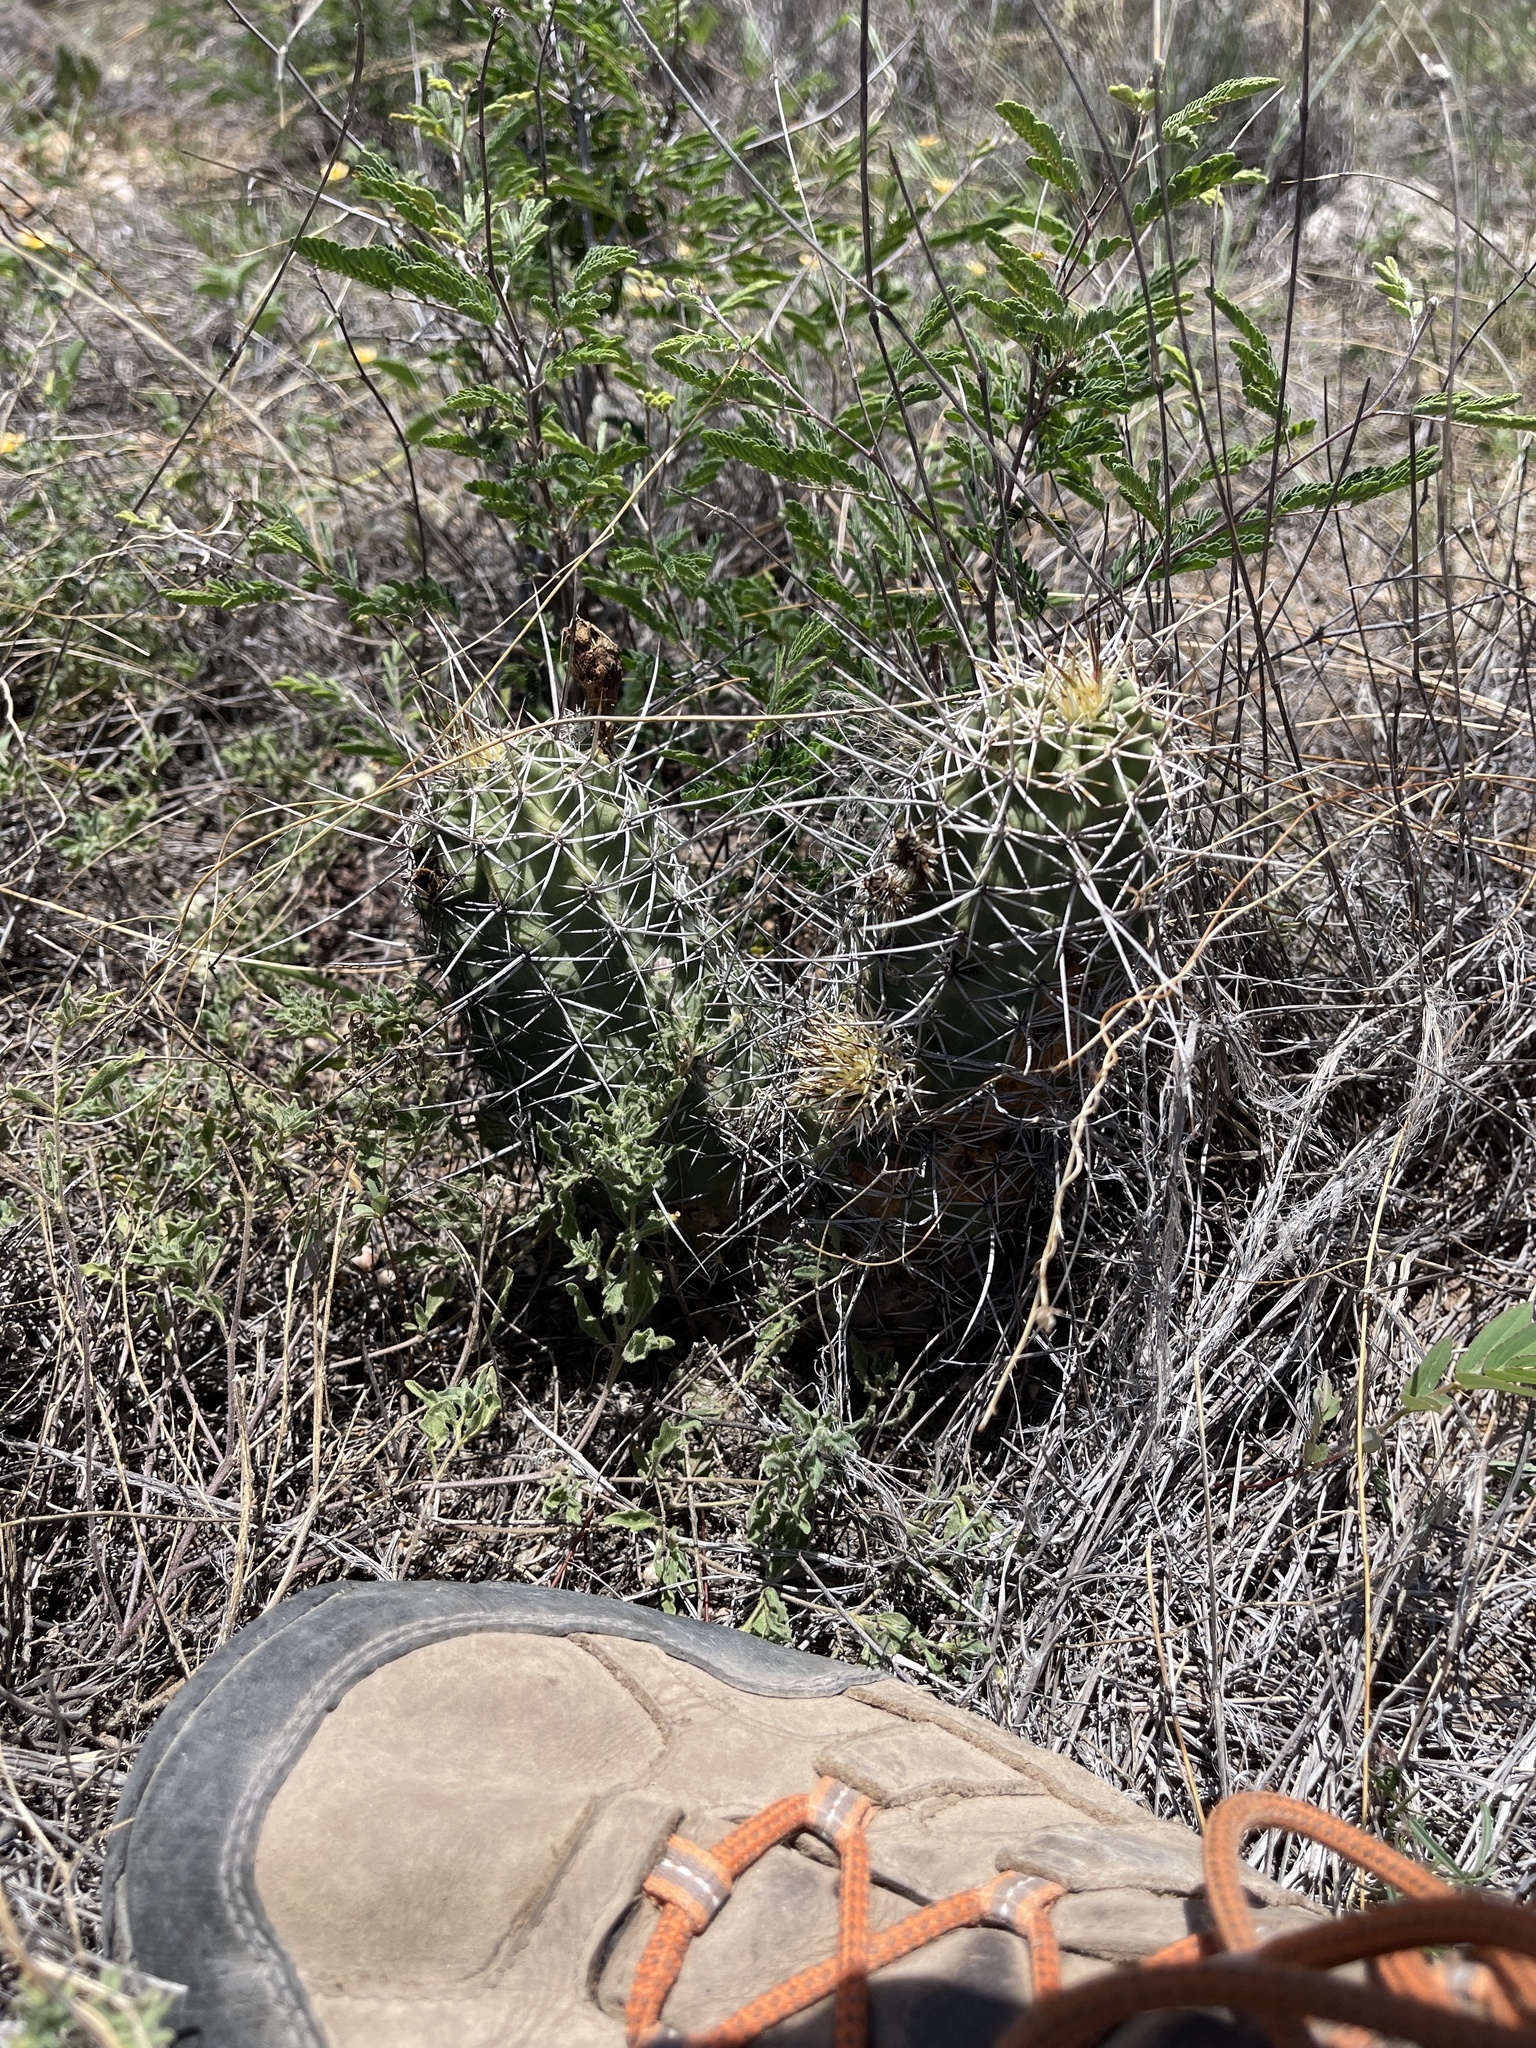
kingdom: Plantae
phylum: Tracheophyta
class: Magnoliopsida
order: Caryophyllales
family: Cactaceae
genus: Echinocereus
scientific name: Echinocereus fendleri
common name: Fendler's hedgehog cactus
